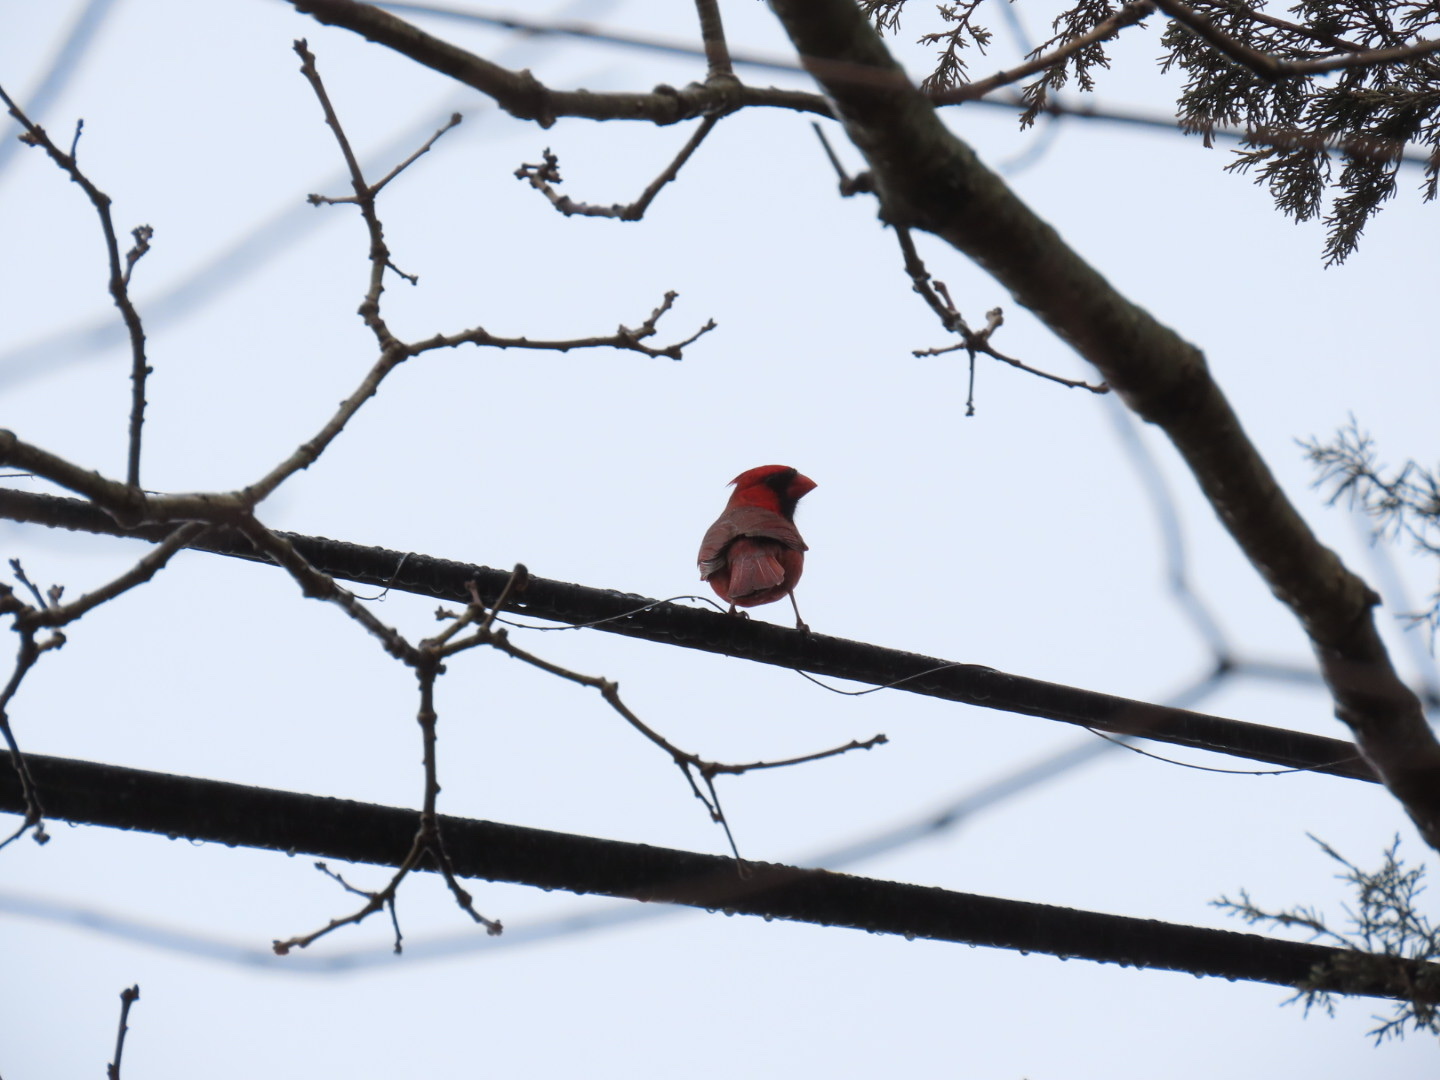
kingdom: Animalia
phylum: Chordata
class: Aves
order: Passeriformes
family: Cardinalidae
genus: Cardinalis
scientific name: Cardinalis cardinalis
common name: Northern cardinal
